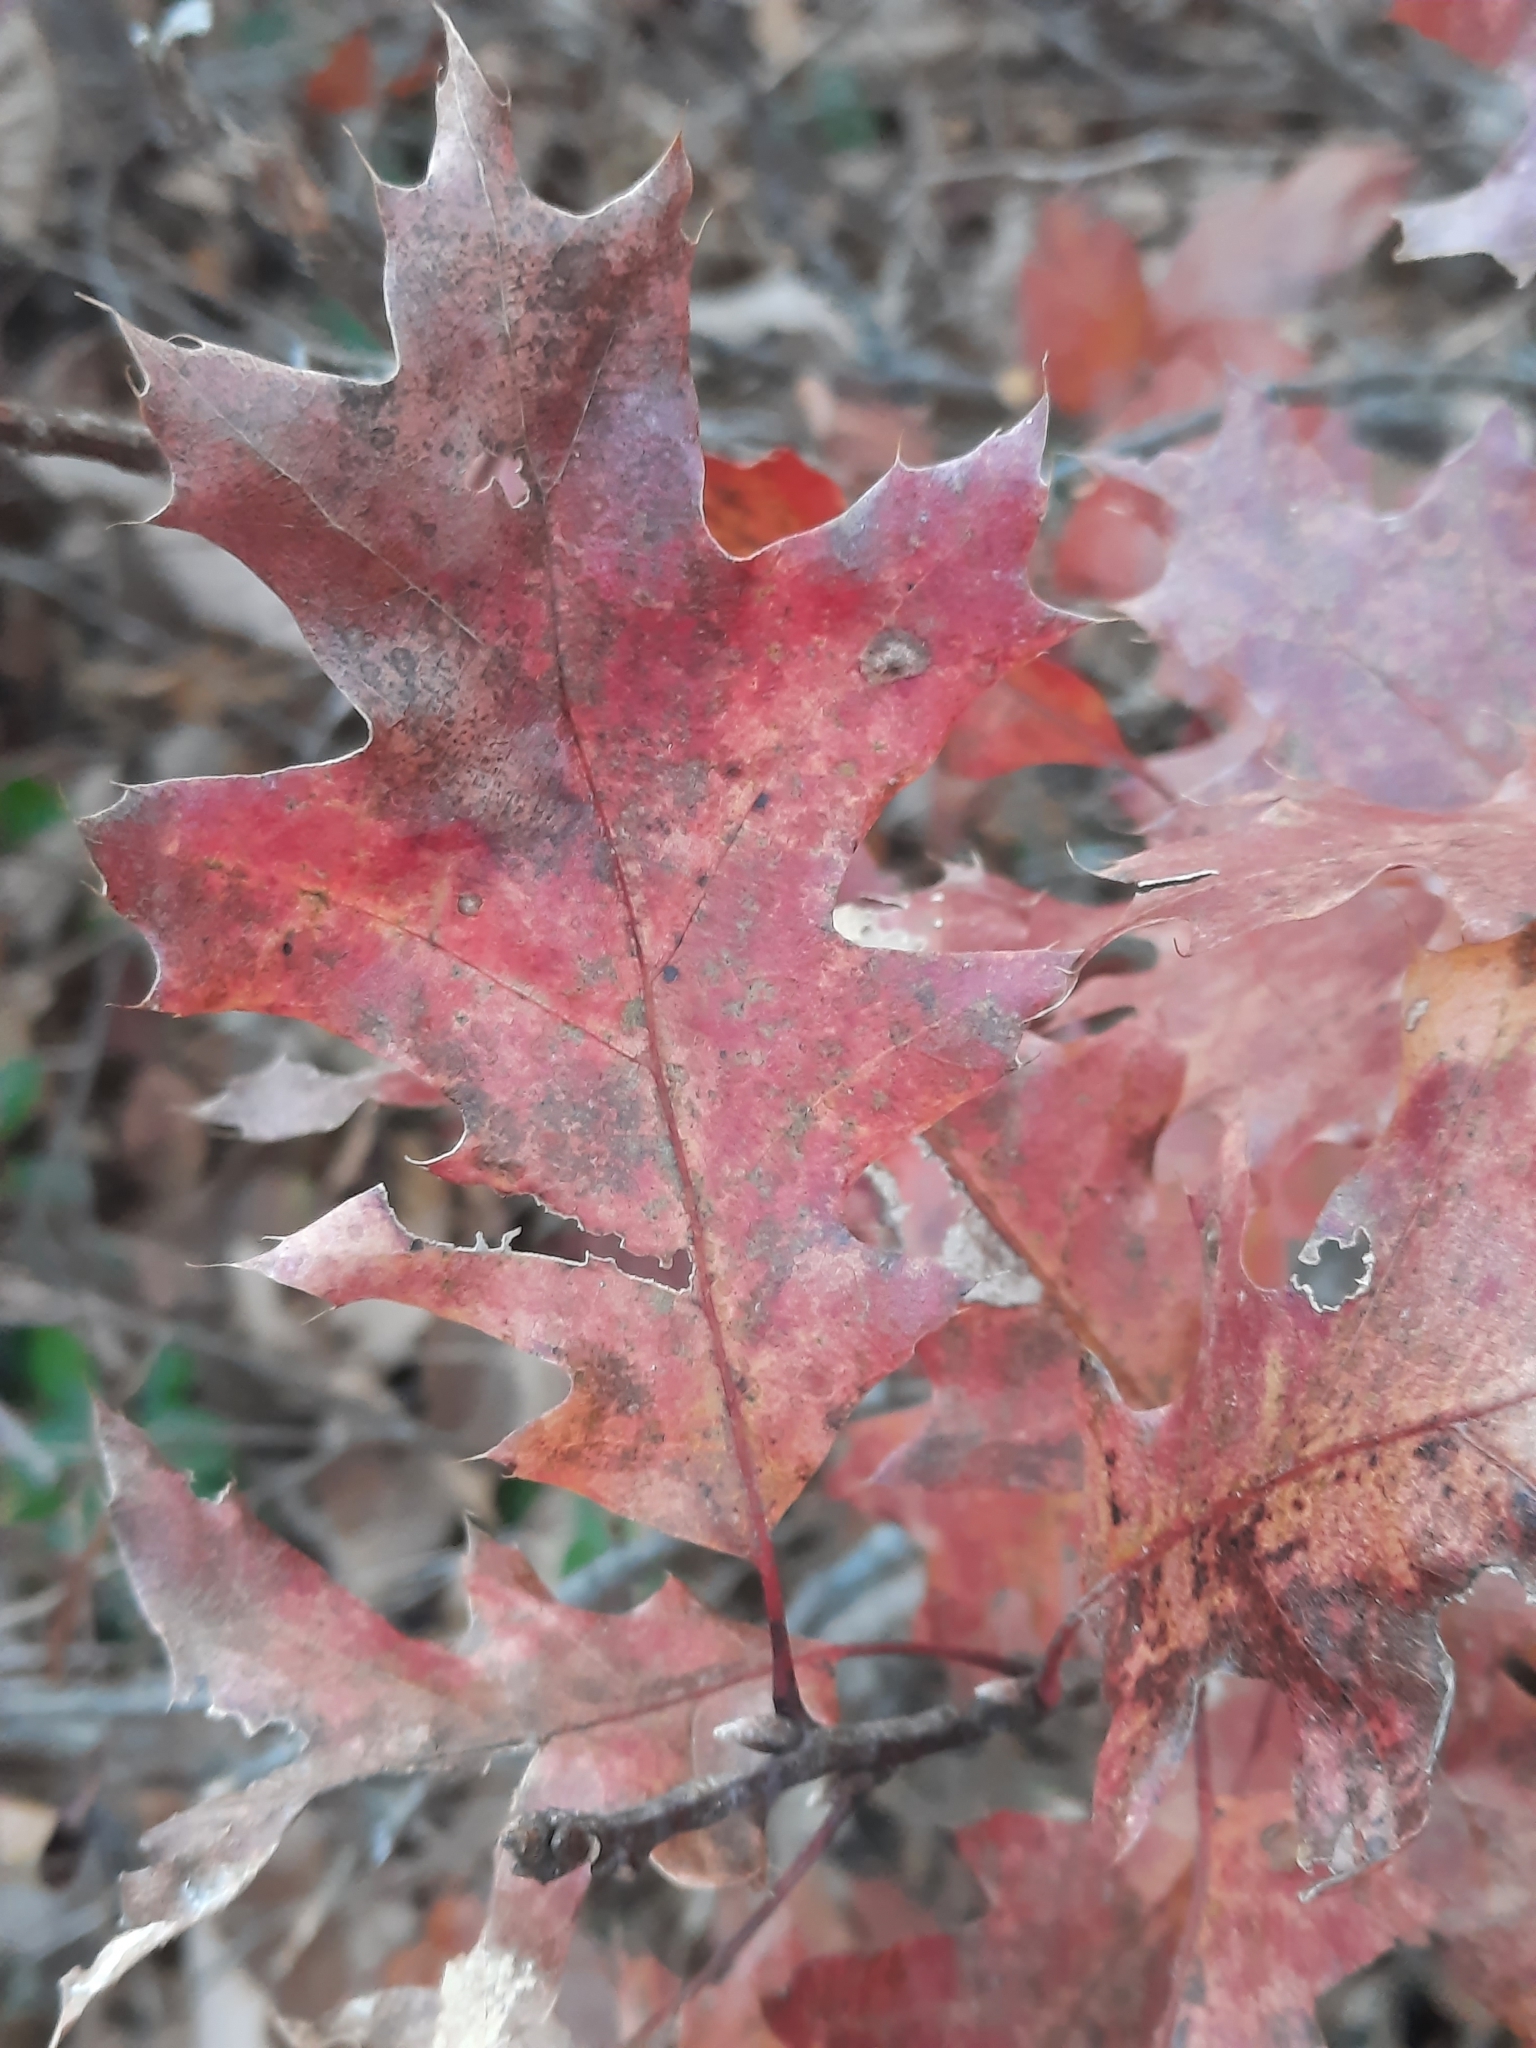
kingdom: Plantae
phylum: Tracheophyta
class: Magnoliopsida
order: Fagales
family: Fagaceae
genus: Quercus
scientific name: Quercus rubra
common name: Red oak
